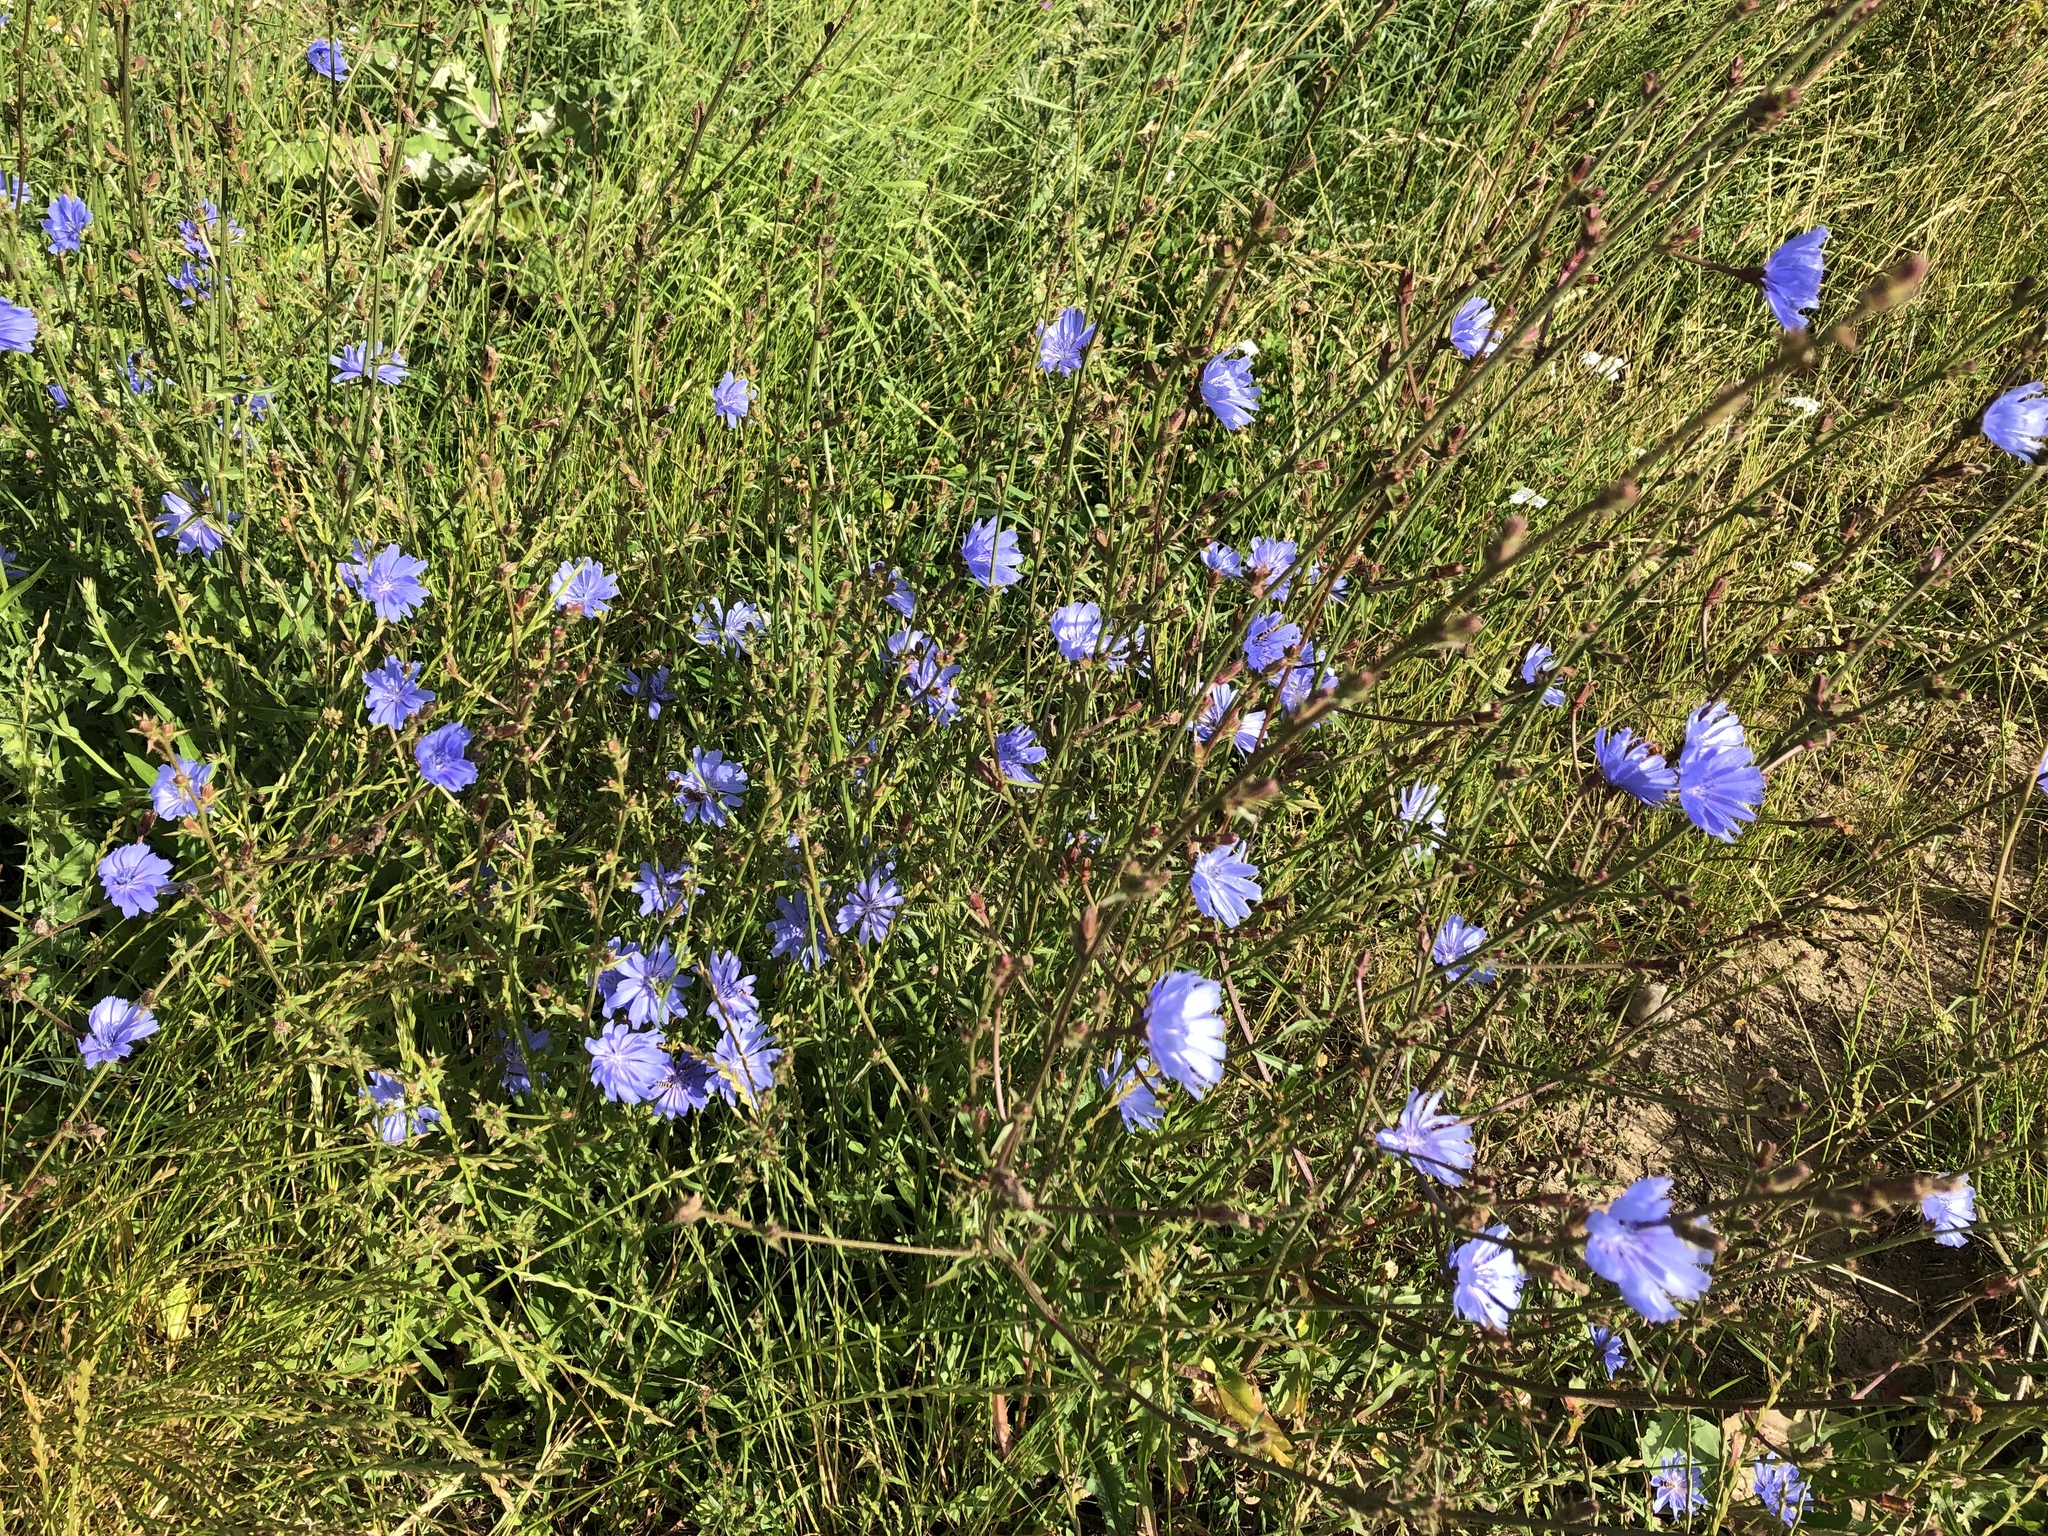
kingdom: Plantae
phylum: Tracheophyta
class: Magnoliopsida
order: Asterales
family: Asteraceae
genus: Cichorium
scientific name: Cichorium intybus
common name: Chicory
